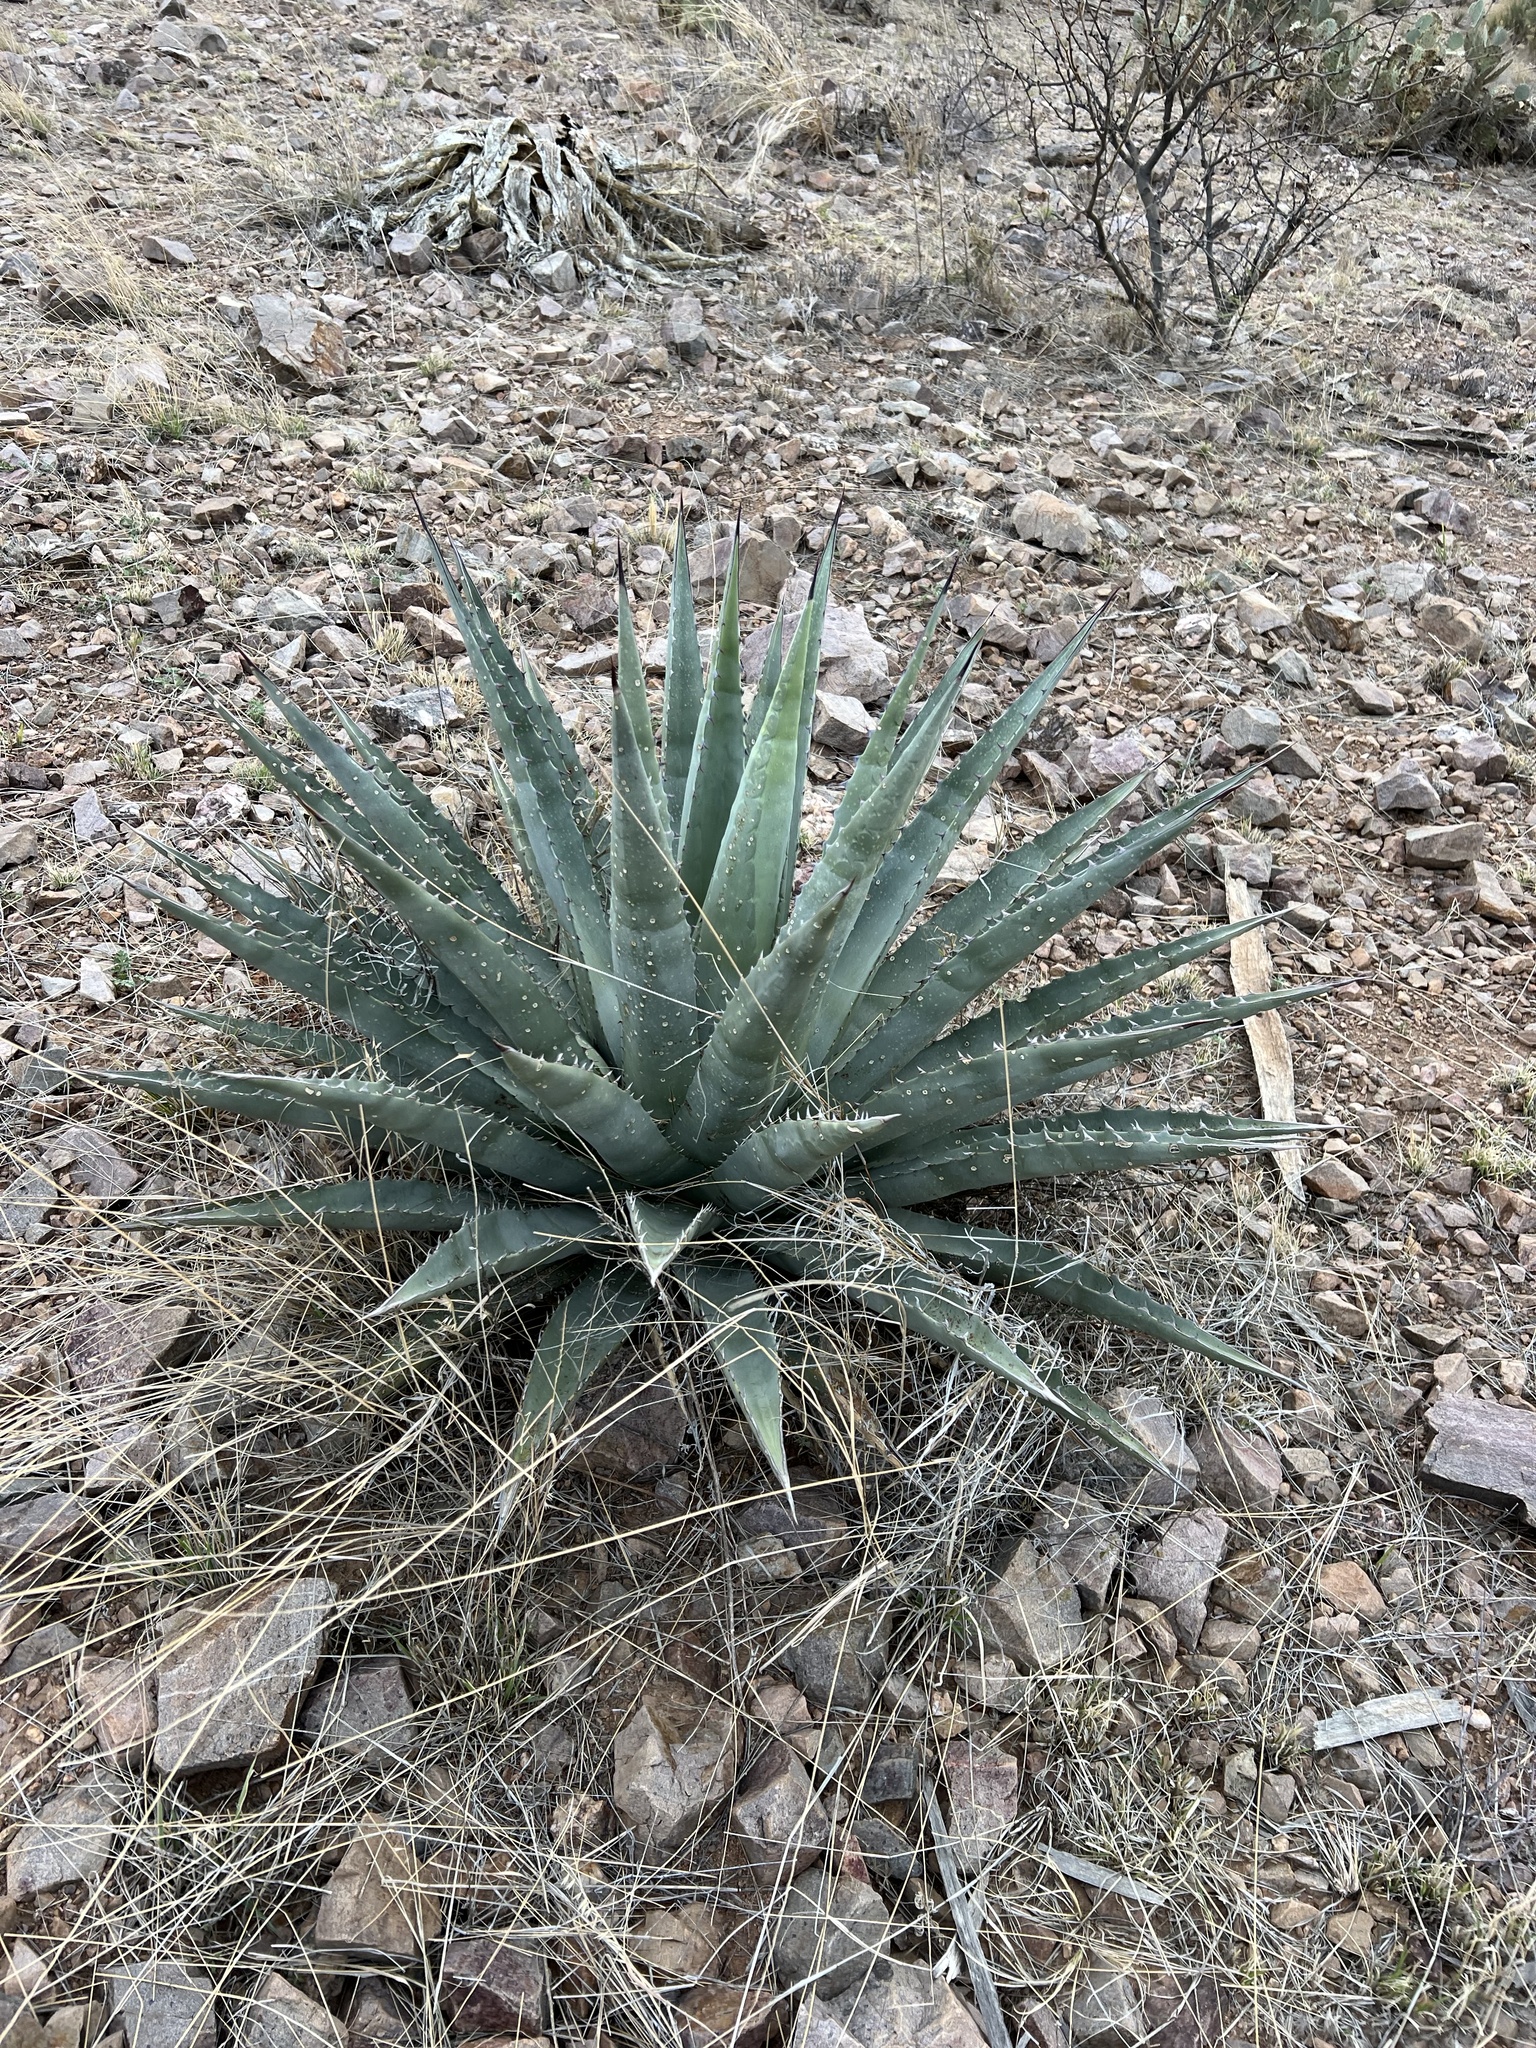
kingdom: Plantae
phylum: Tracheophyta
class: Liliopsida
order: Asparagales
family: Asparagaceae
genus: Agave
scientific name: Agave palmeri
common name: Palmer agave
